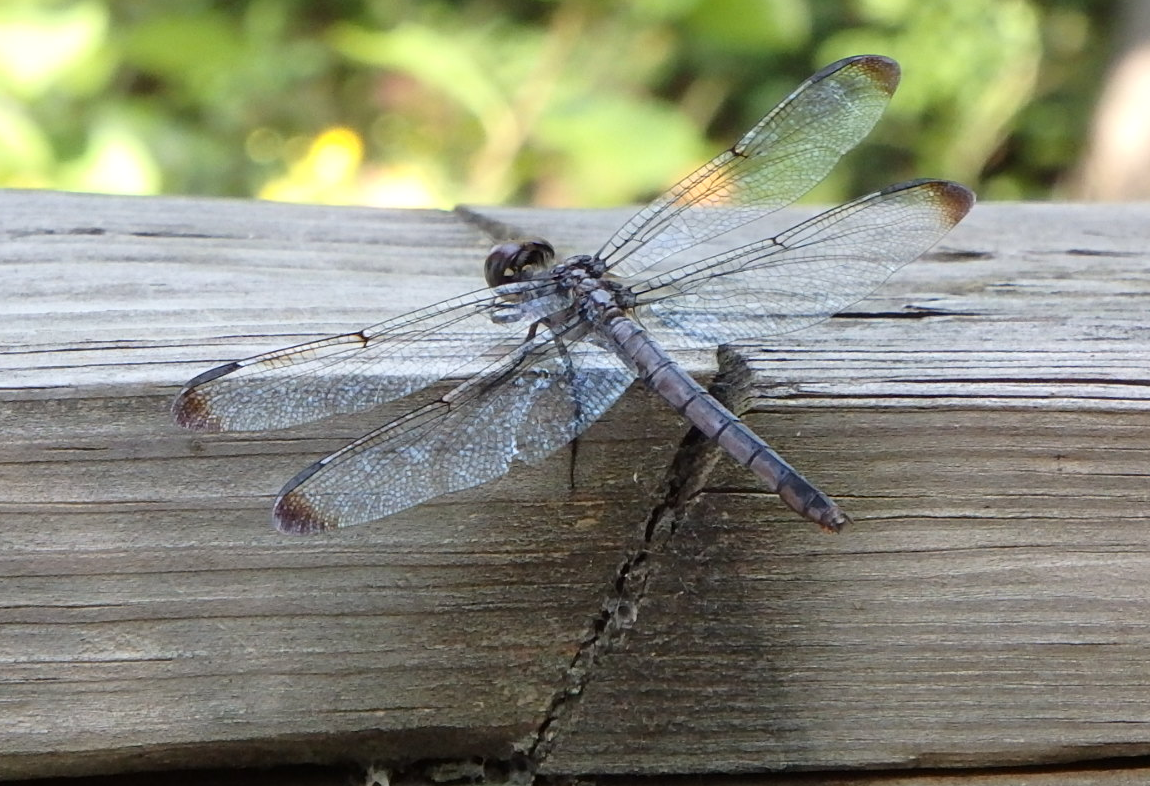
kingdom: Animalia
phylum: Arthropoda
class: Insecta
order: Odonata
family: Libellulidae
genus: Libellula
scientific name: Libellula vibrans
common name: Great blue skimmer
